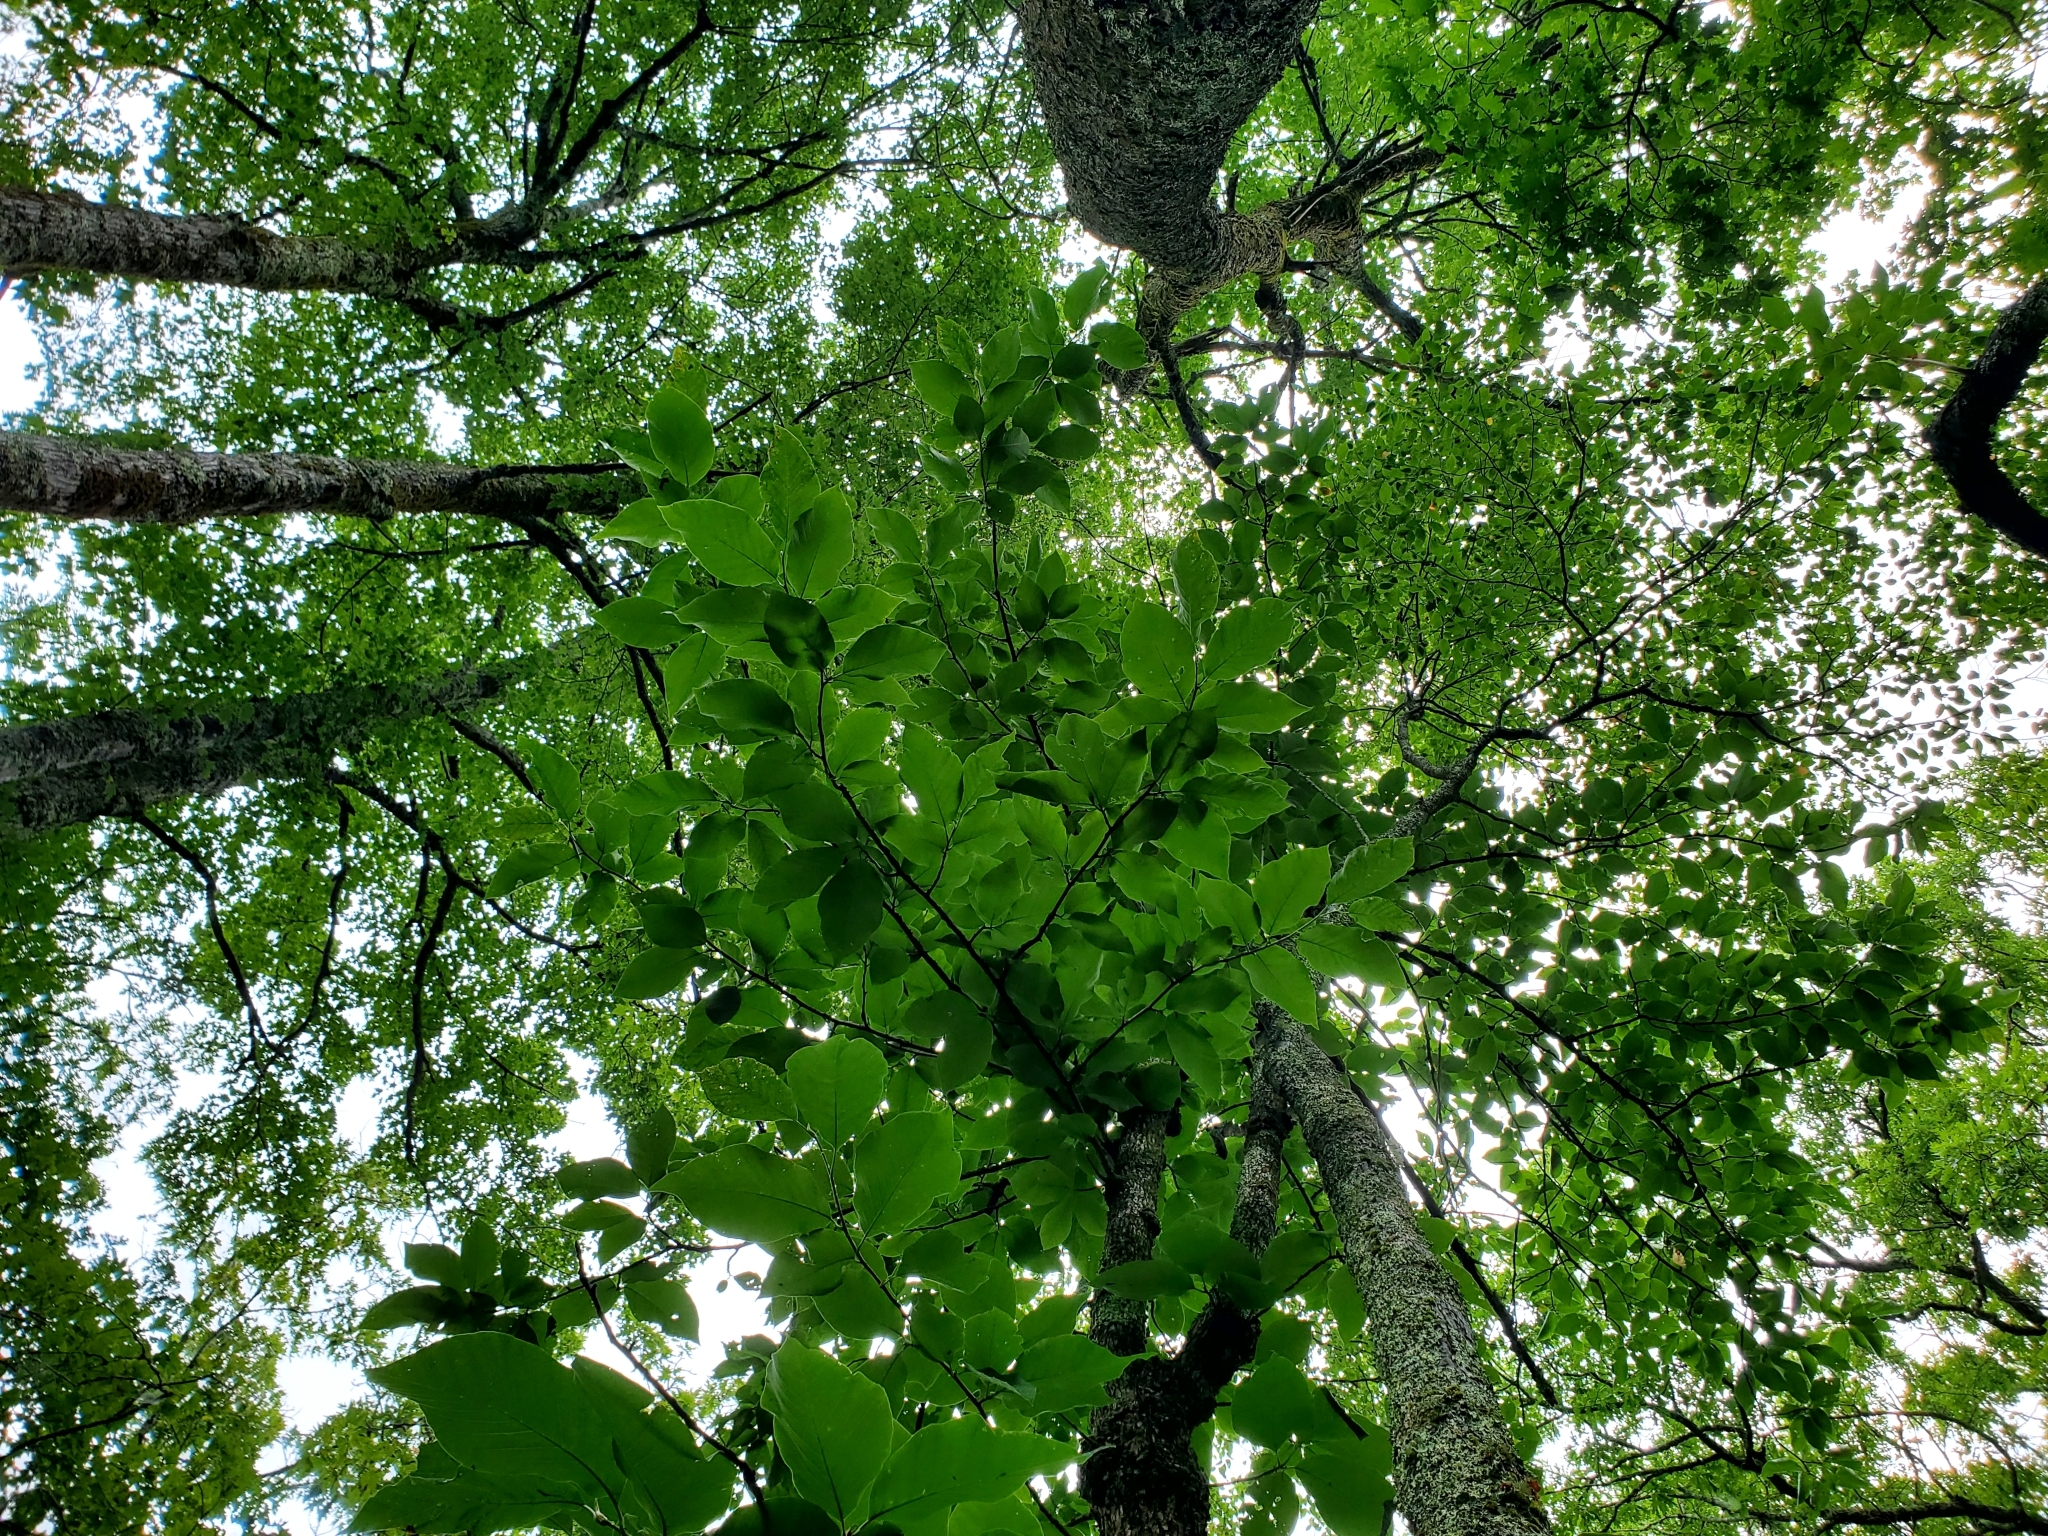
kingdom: Plantae
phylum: Tracheophyta
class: Magnoliopsida
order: Magnoliales
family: Magnoliaceae
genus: Magnolia
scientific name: Magnolia acuminata
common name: Cucumber magnolia
